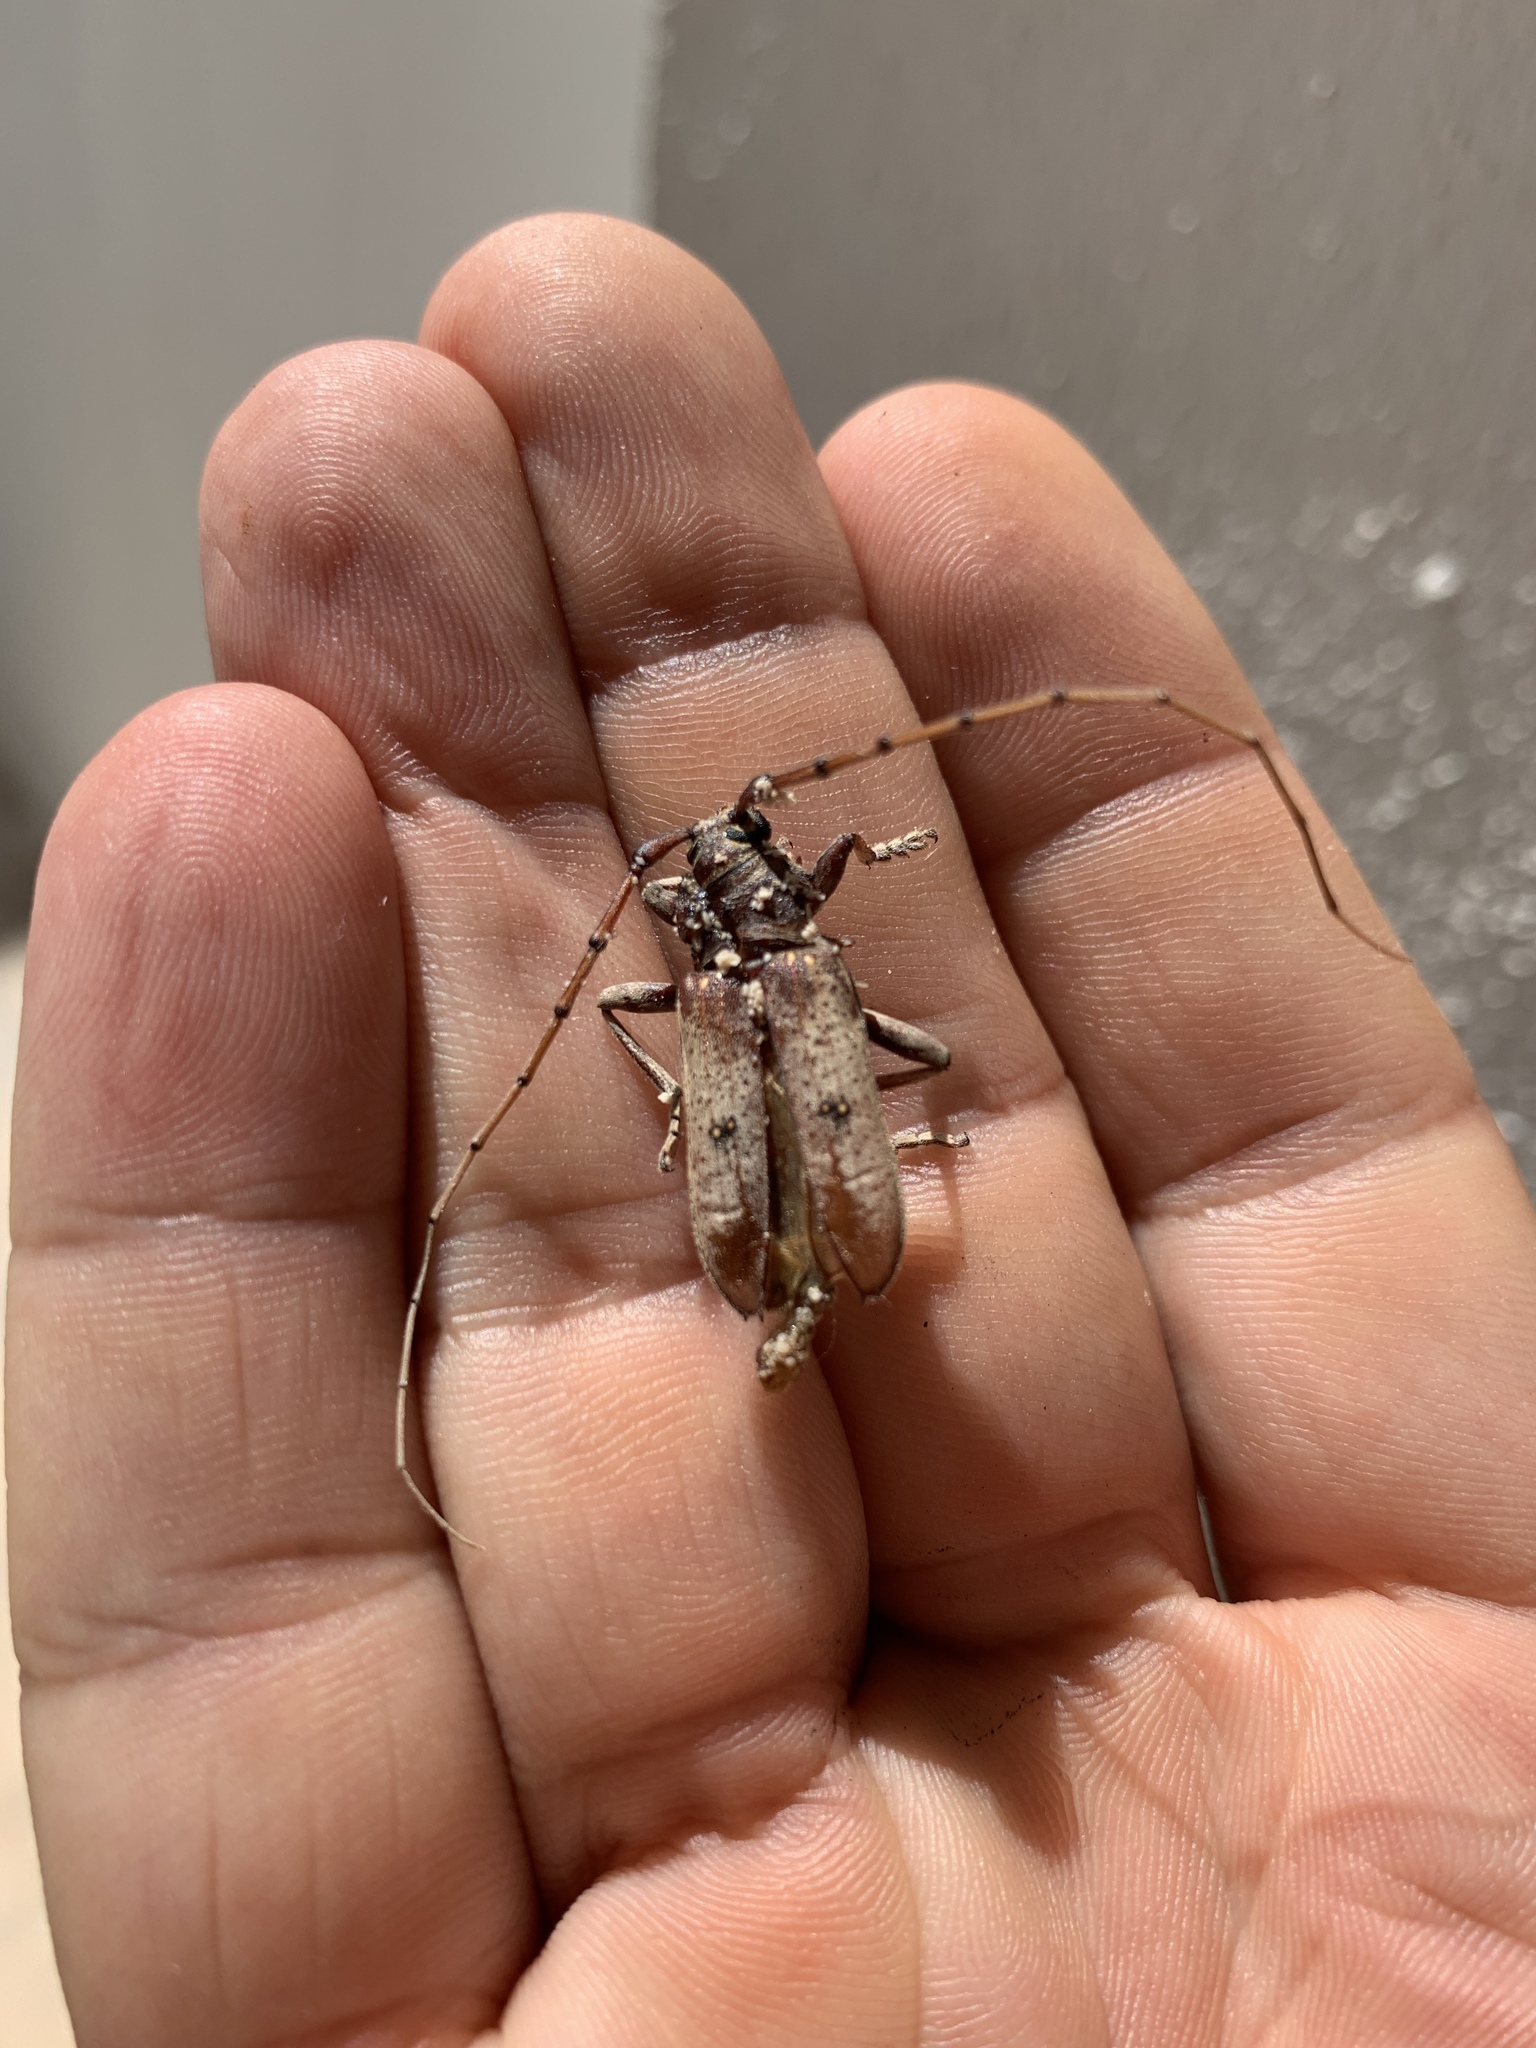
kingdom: Animalia
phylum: Arthropoda
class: Insecta
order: Coleoptera
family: Cerambycidae
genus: Eburia
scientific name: Eburia porulosa
